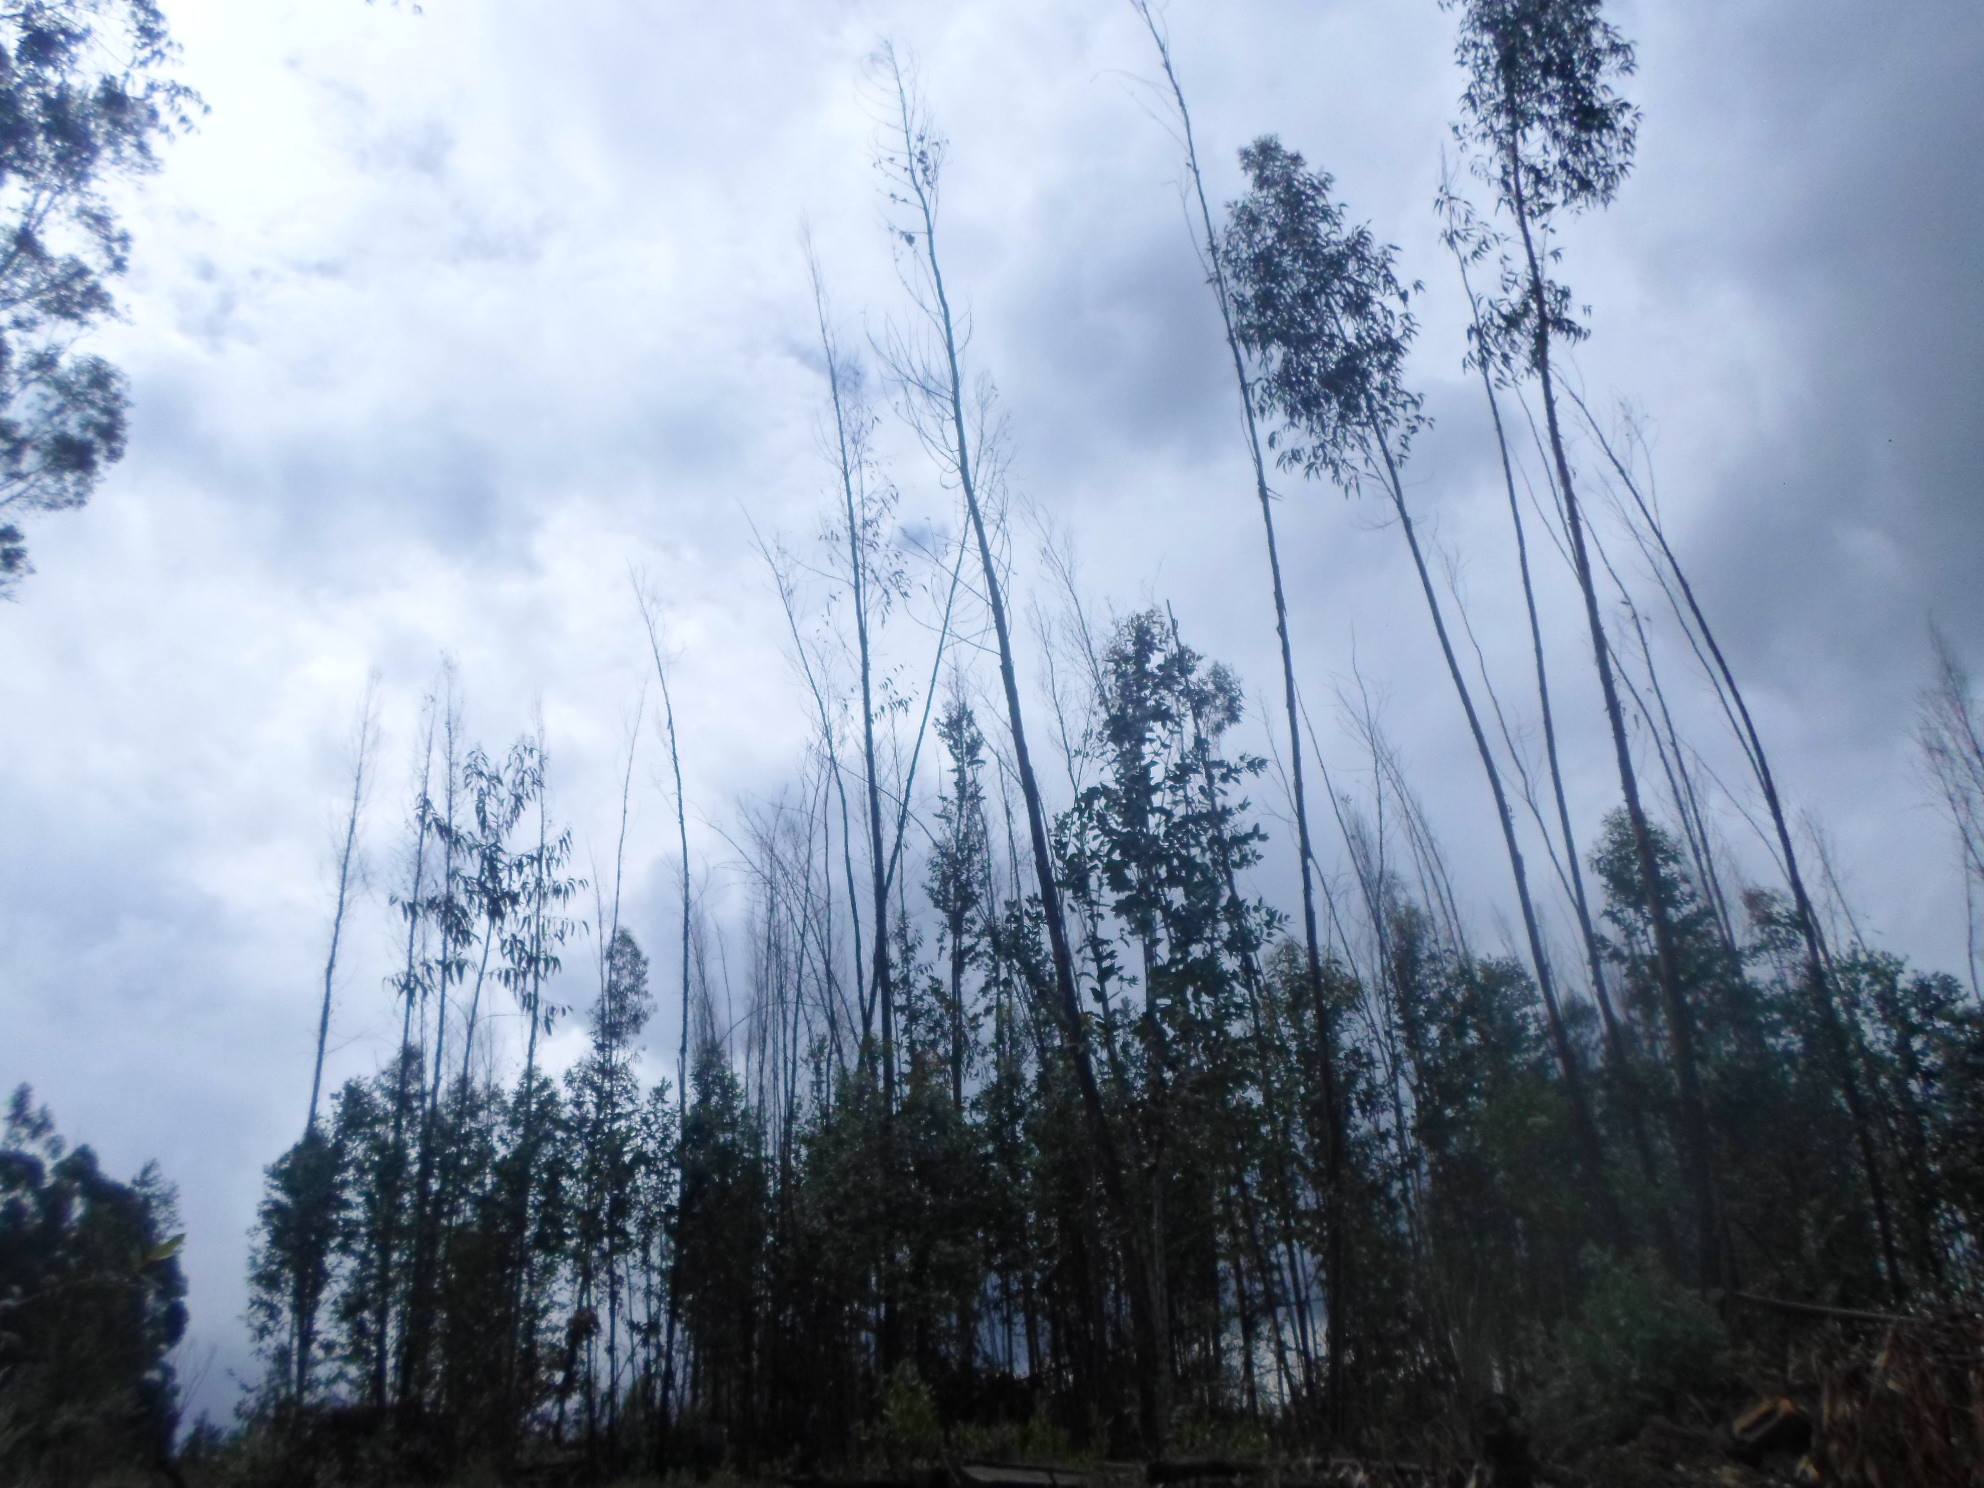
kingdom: Plantae
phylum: Tracheophyta
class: Magnoliopsida
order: Myrtales
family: Myrtaceae
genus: Eucalyptus
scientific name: Eucalyptus globulus
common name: Southern blue-gum
